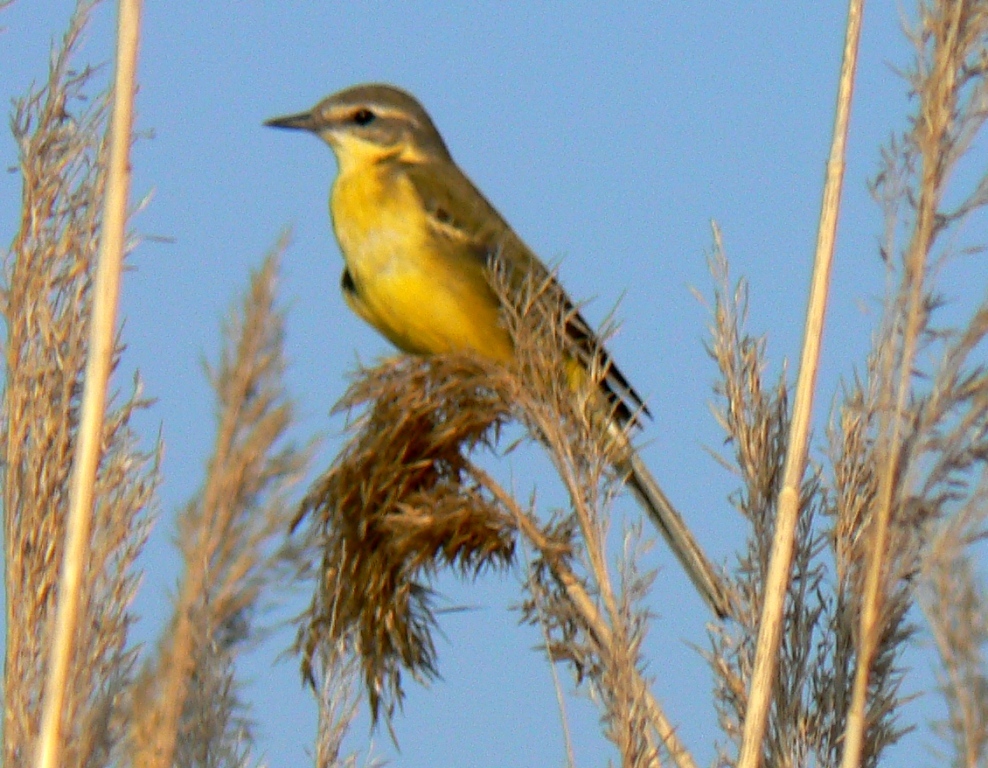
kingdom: Animalia
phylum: Chordata
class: Aves
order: Passeriformes
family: Motacillidae
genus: Motacilla
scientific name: Motacilla flava
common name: Western yellow wagtail
